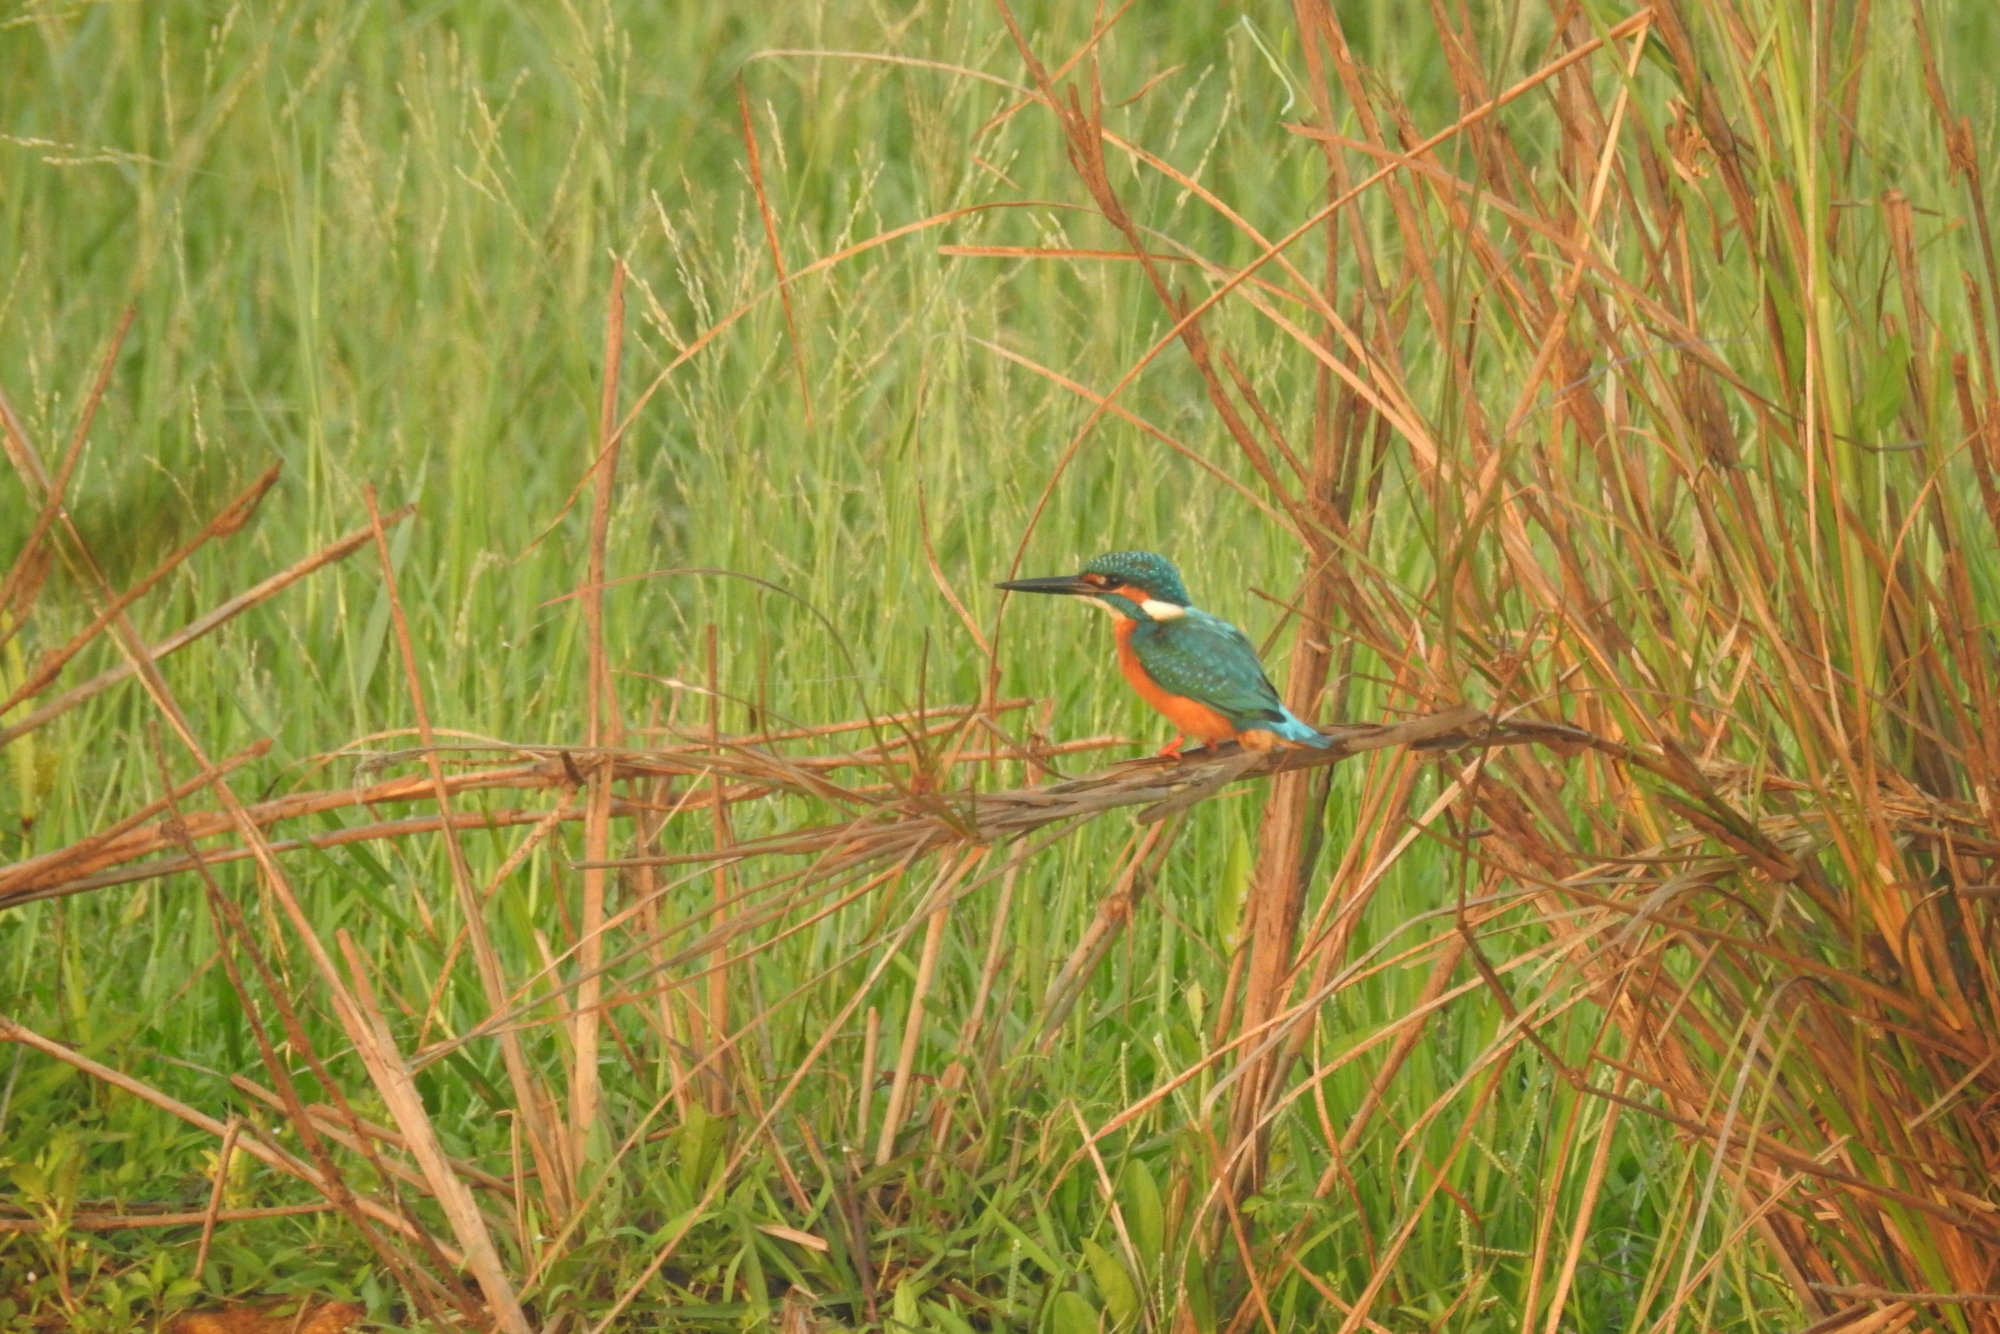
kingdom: Animalia
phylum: Chordata
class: Aves
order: Coraciiformes
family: Alcedinidae
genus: Alcedo
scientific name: Alcedo atthis
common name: Common kingfisher
